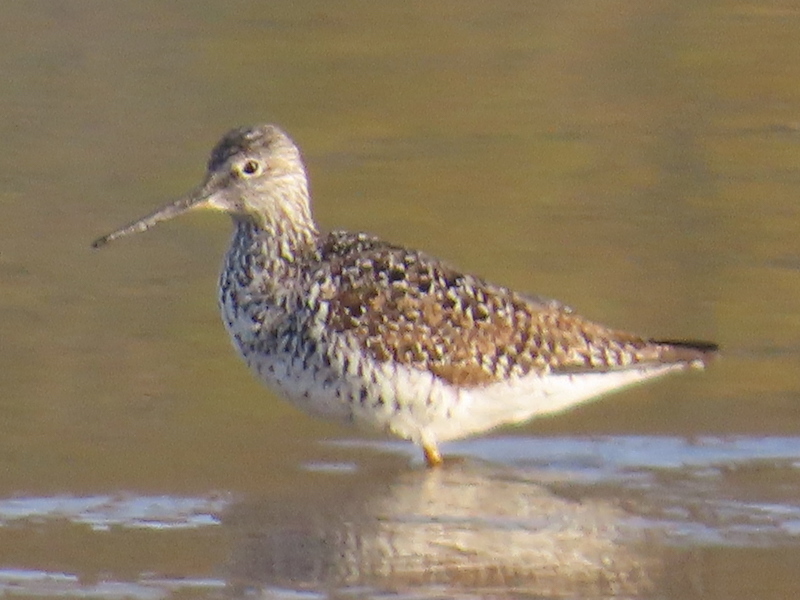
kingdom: Animalia
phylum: Chordata
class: Aves
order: Charadriiformes
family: Scolopacidae
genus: Tringa
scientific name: Tringa melanoleuca
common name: Greater yellowlegs
